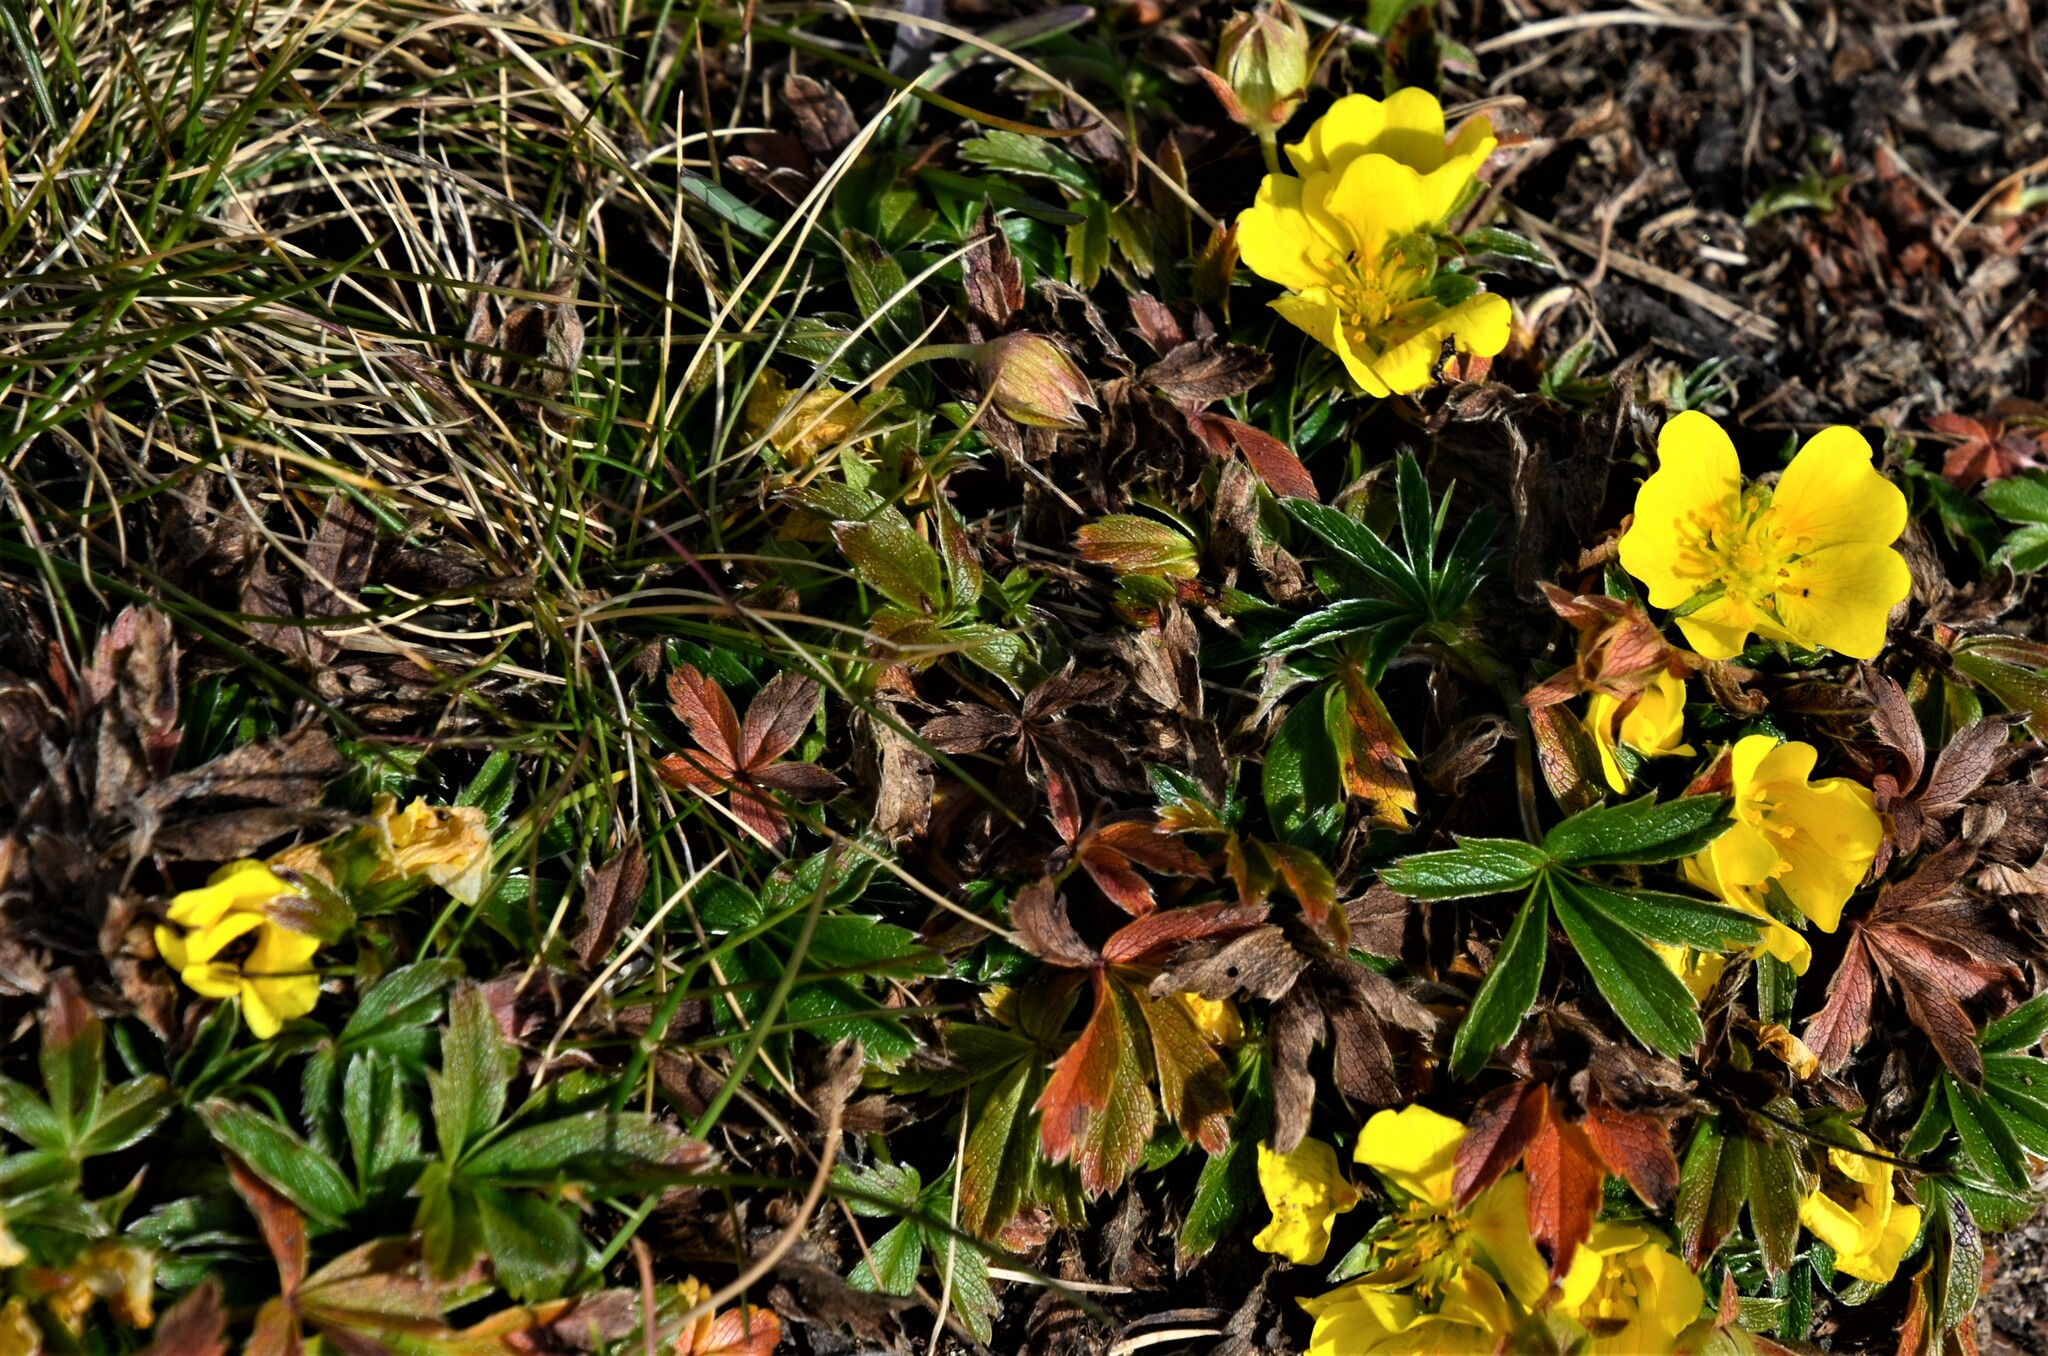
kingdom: Plantae
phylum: Tracheophyta
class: Magnoliopsida
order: Rosales
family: Rosaceae
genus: Potentilla
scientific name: Potentilla aurea
